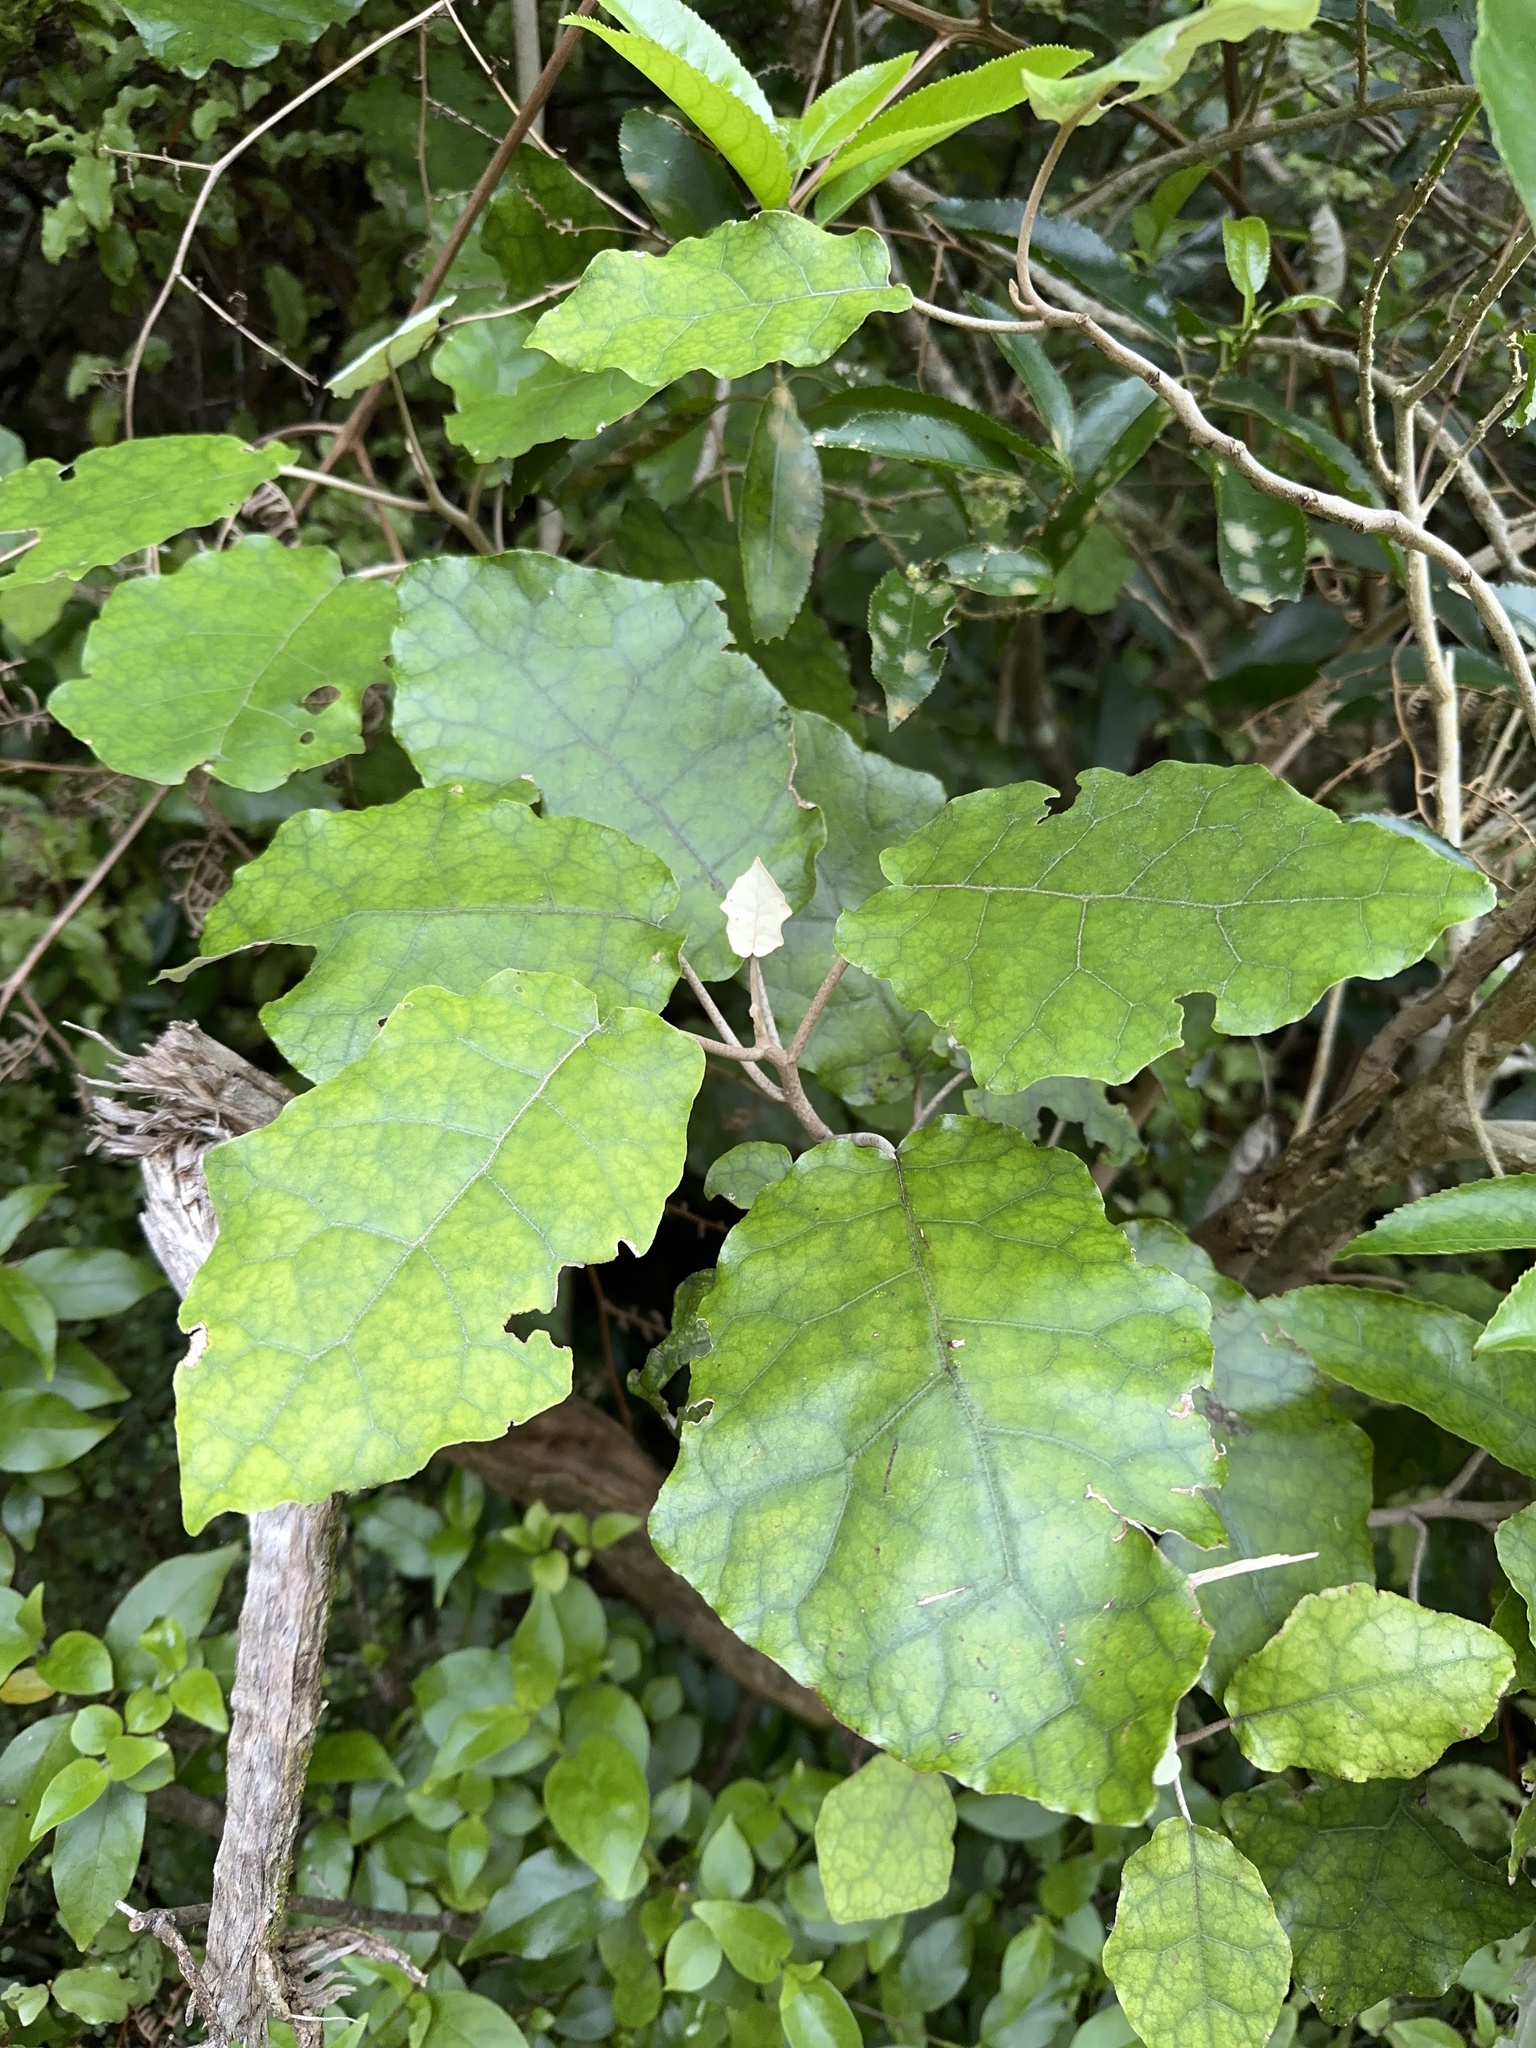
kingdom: Plantae
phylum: Tracheophyta
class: Magnoliopsida
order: Asterales
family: Asteraceae
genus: Brachyglottis
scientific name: Brachyglottis repanda
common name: Hedge ragwort
